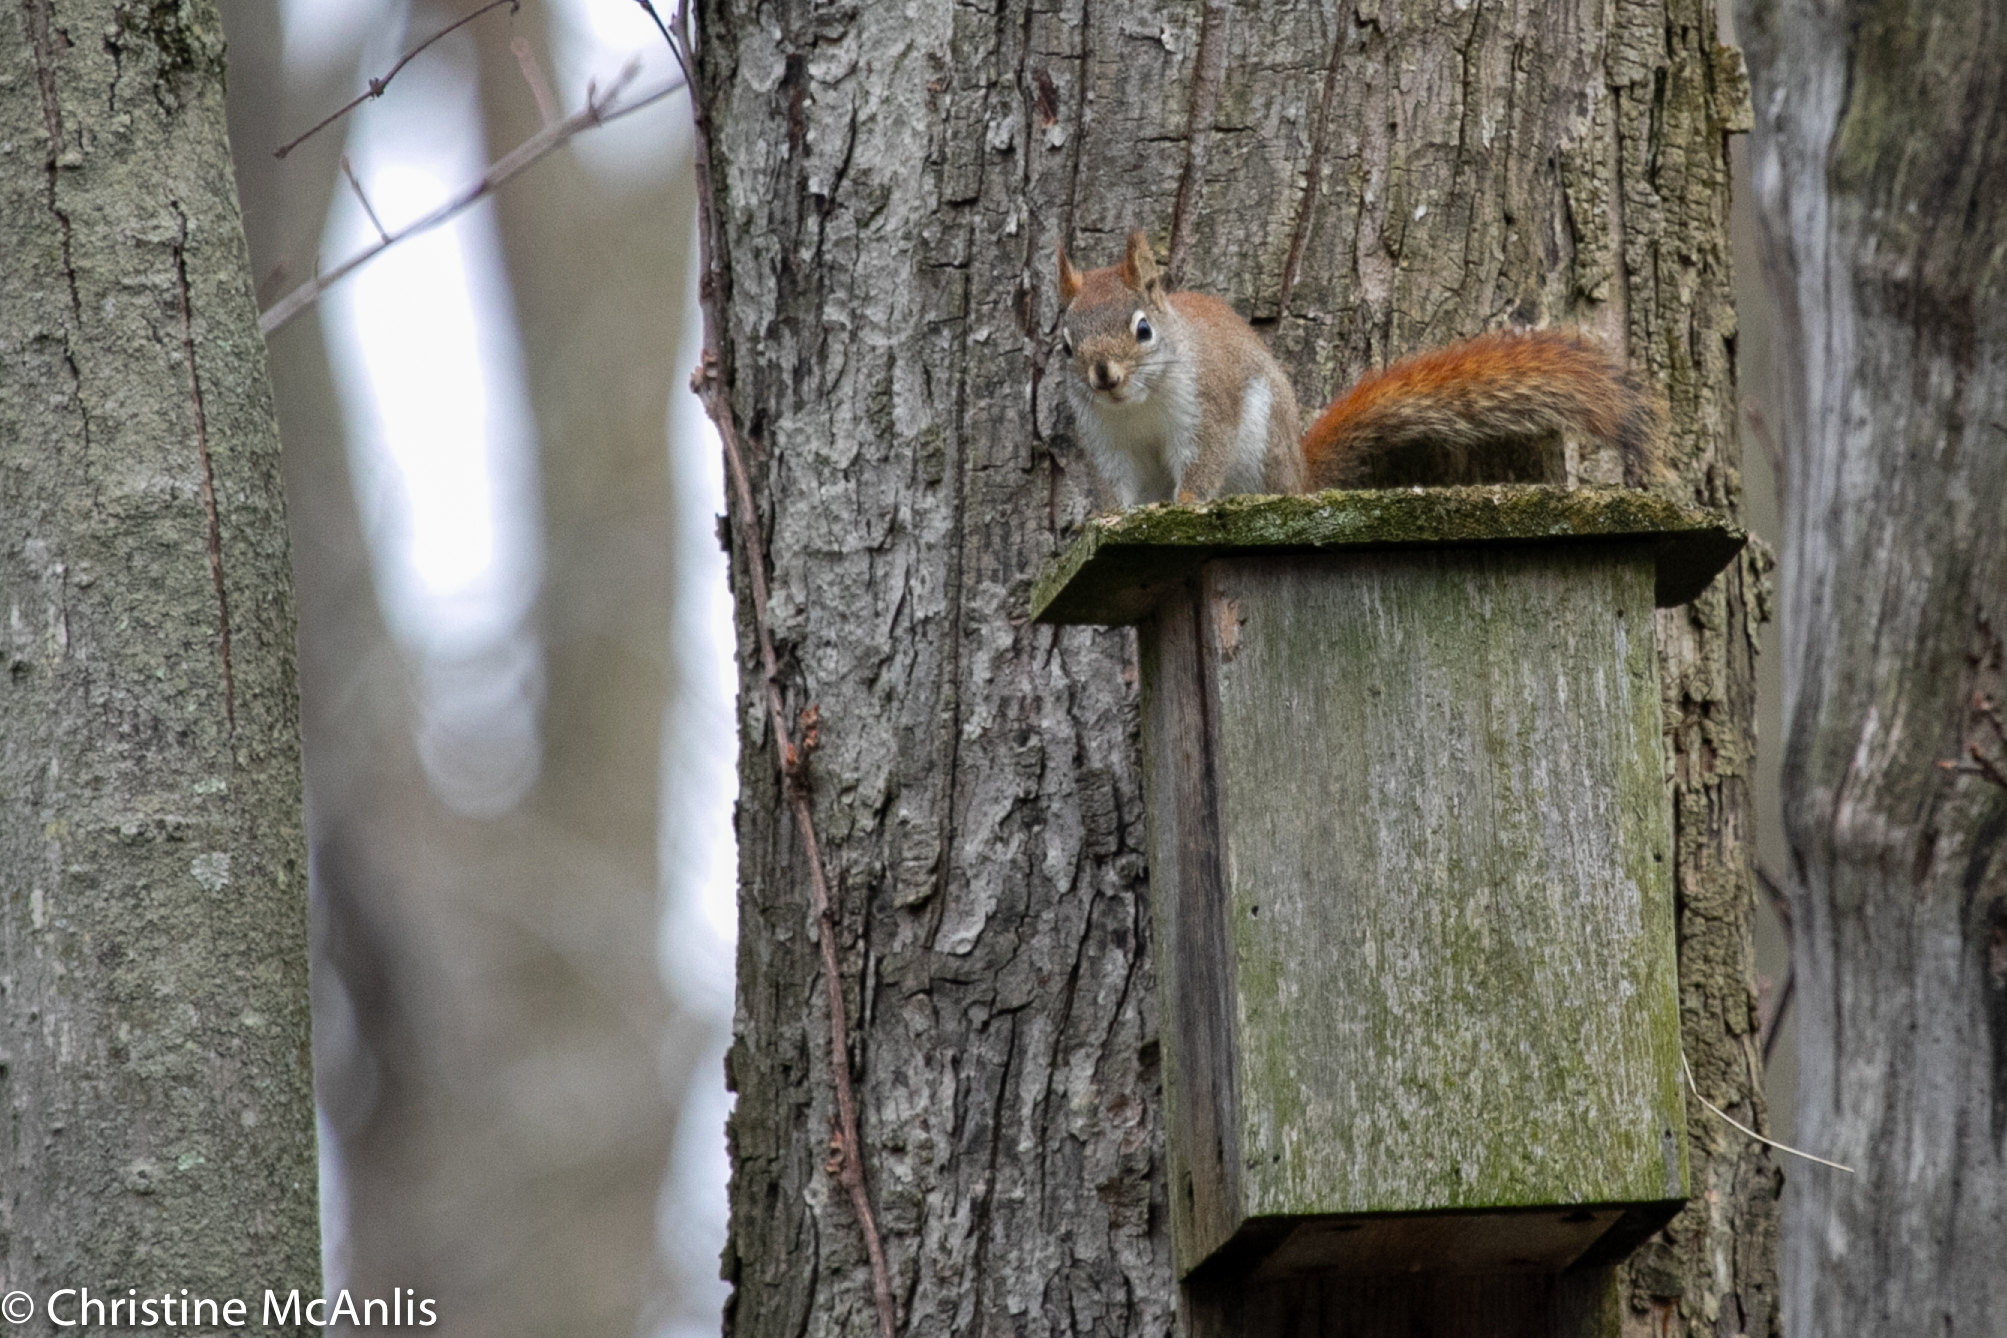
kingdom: Animalia
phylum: Chordata
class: Mammalia
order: Rodentia
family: Sciuridae
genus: Tamiasciurus
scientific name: Tamiasciurus hudsonicus
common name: Red squirrel
